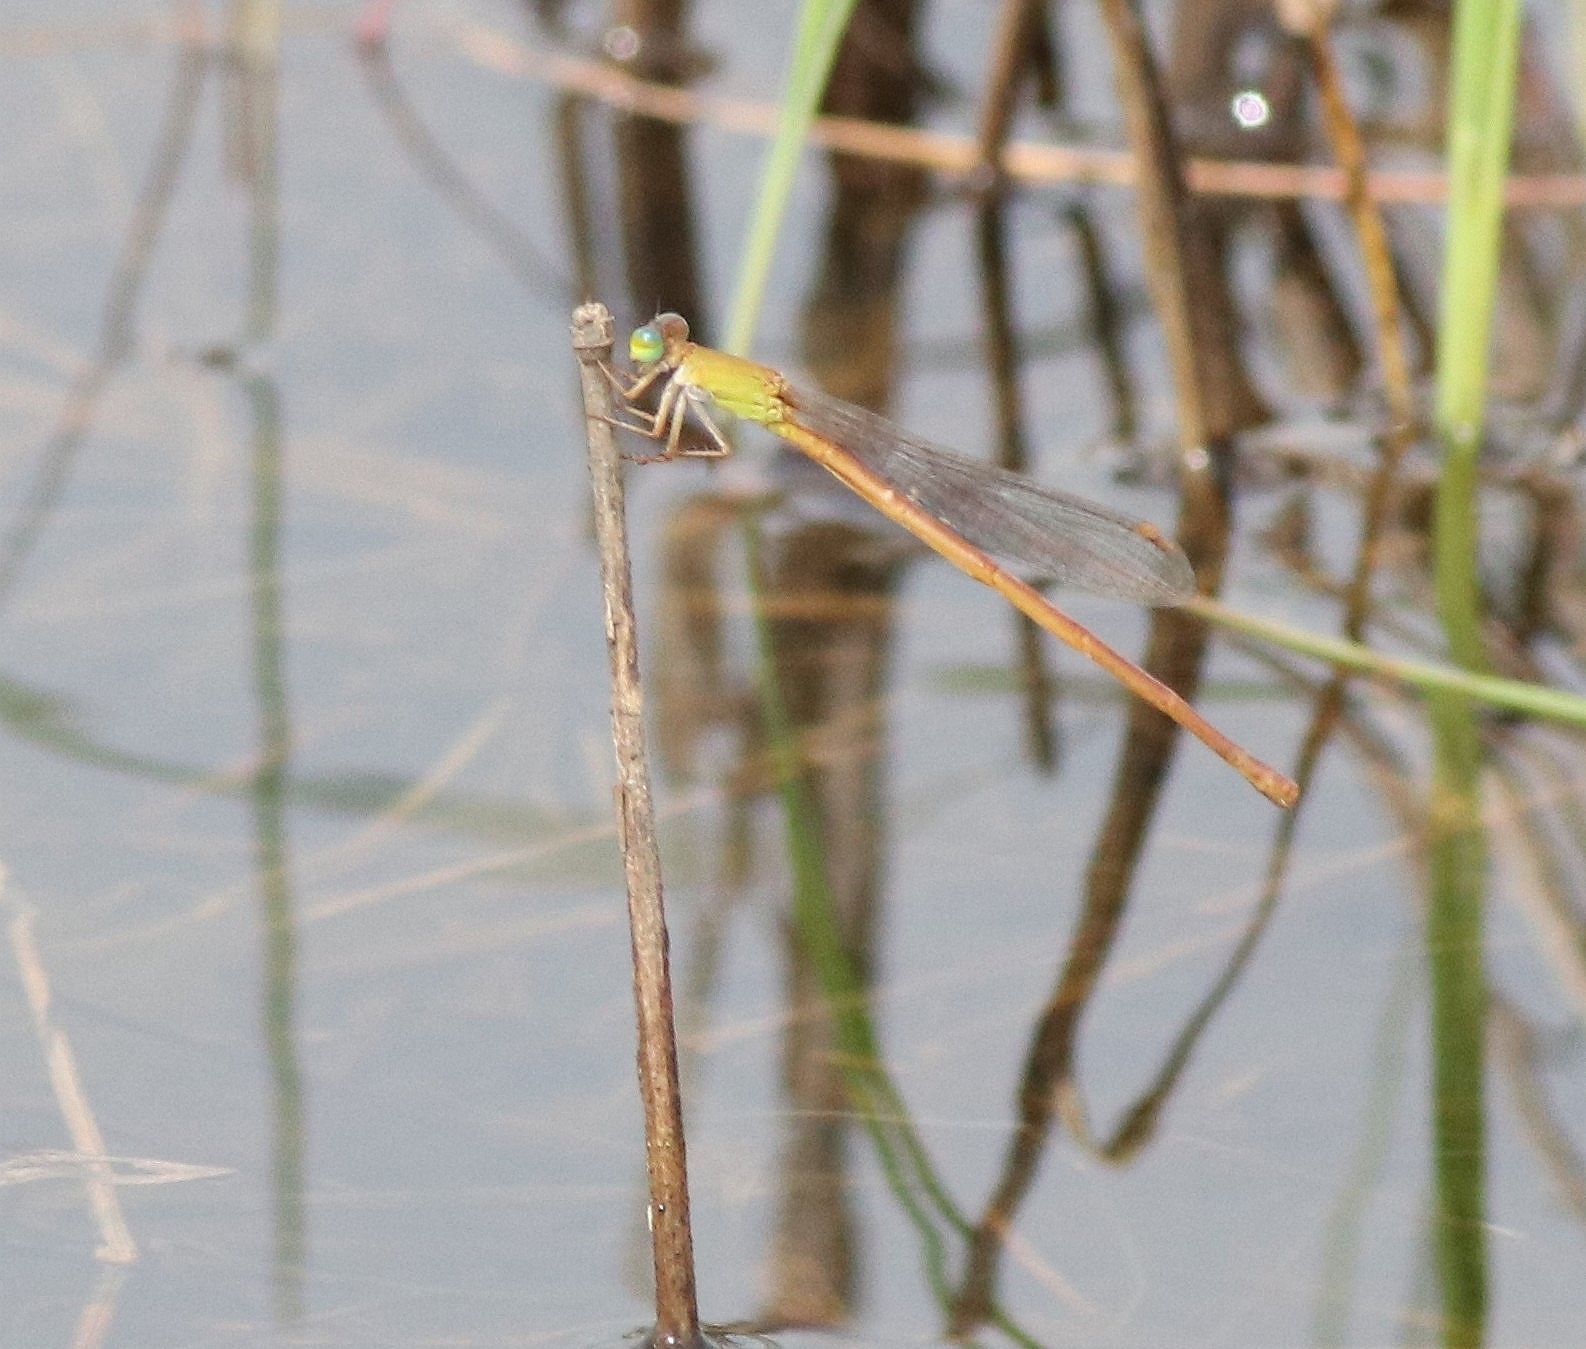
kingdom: Animalia
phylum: Arthropoda
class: Insecta
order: Odonata
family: Coenagrionidae
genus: Ceriagrion
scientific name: Ceriagrion rubiae
